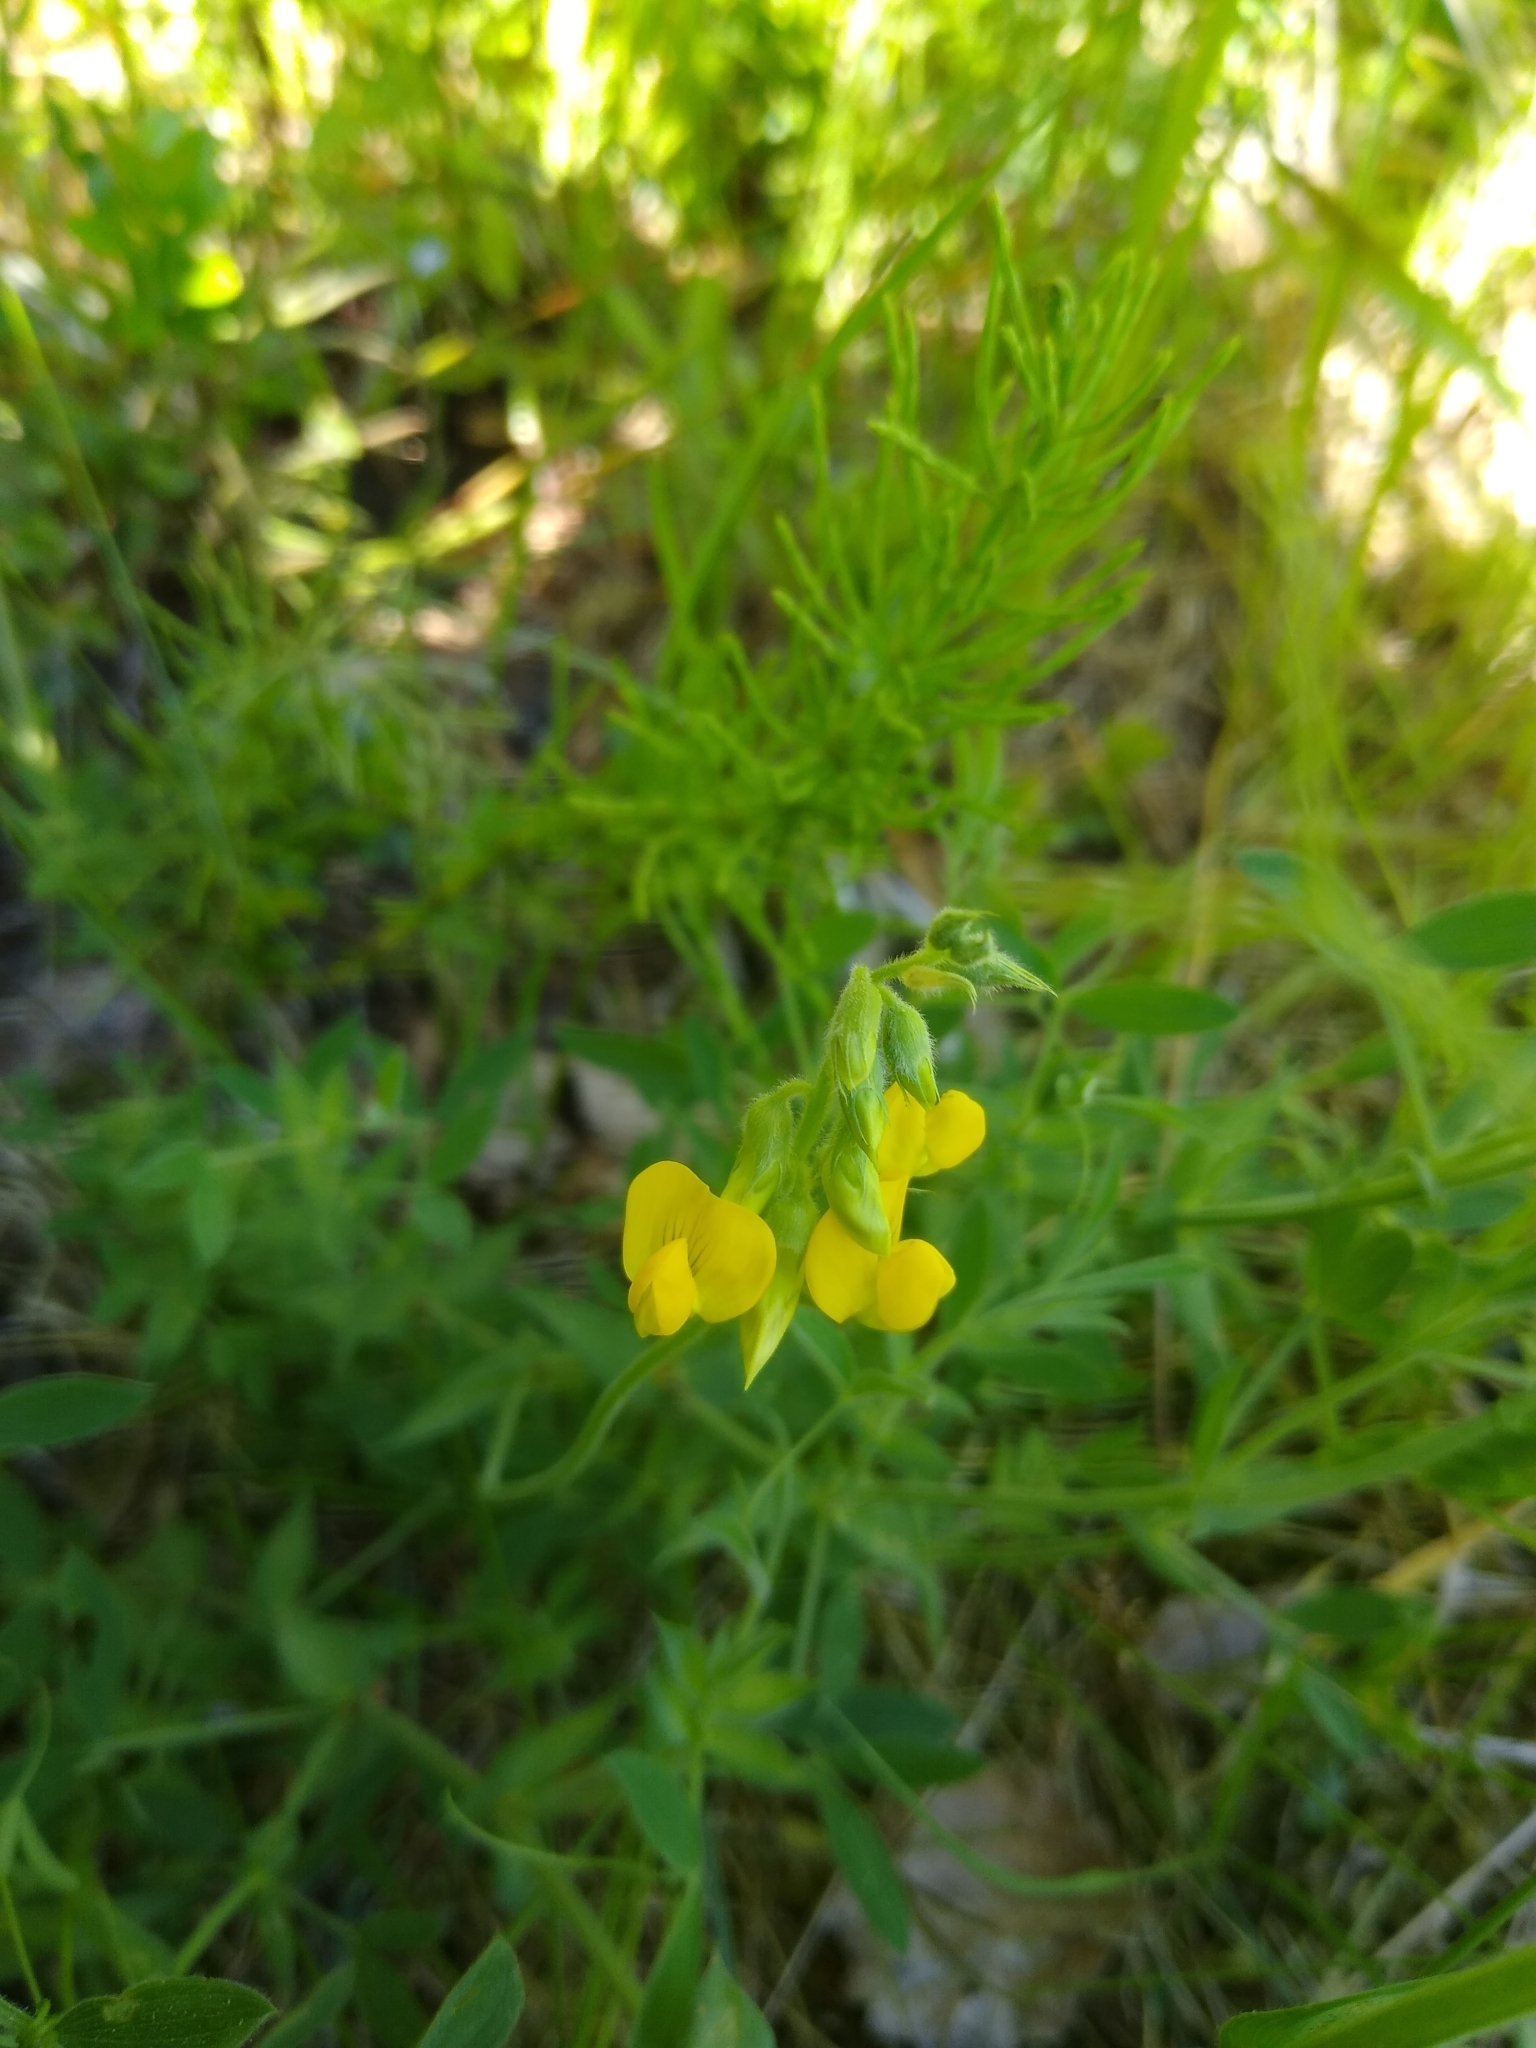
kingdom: Plantae
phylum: Tracheophyta
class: Magnoliopsida
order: Fabales
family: Fabaceae
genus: Lathyrus
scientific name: Lathyrus pratensis
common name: Meadow vetchling
